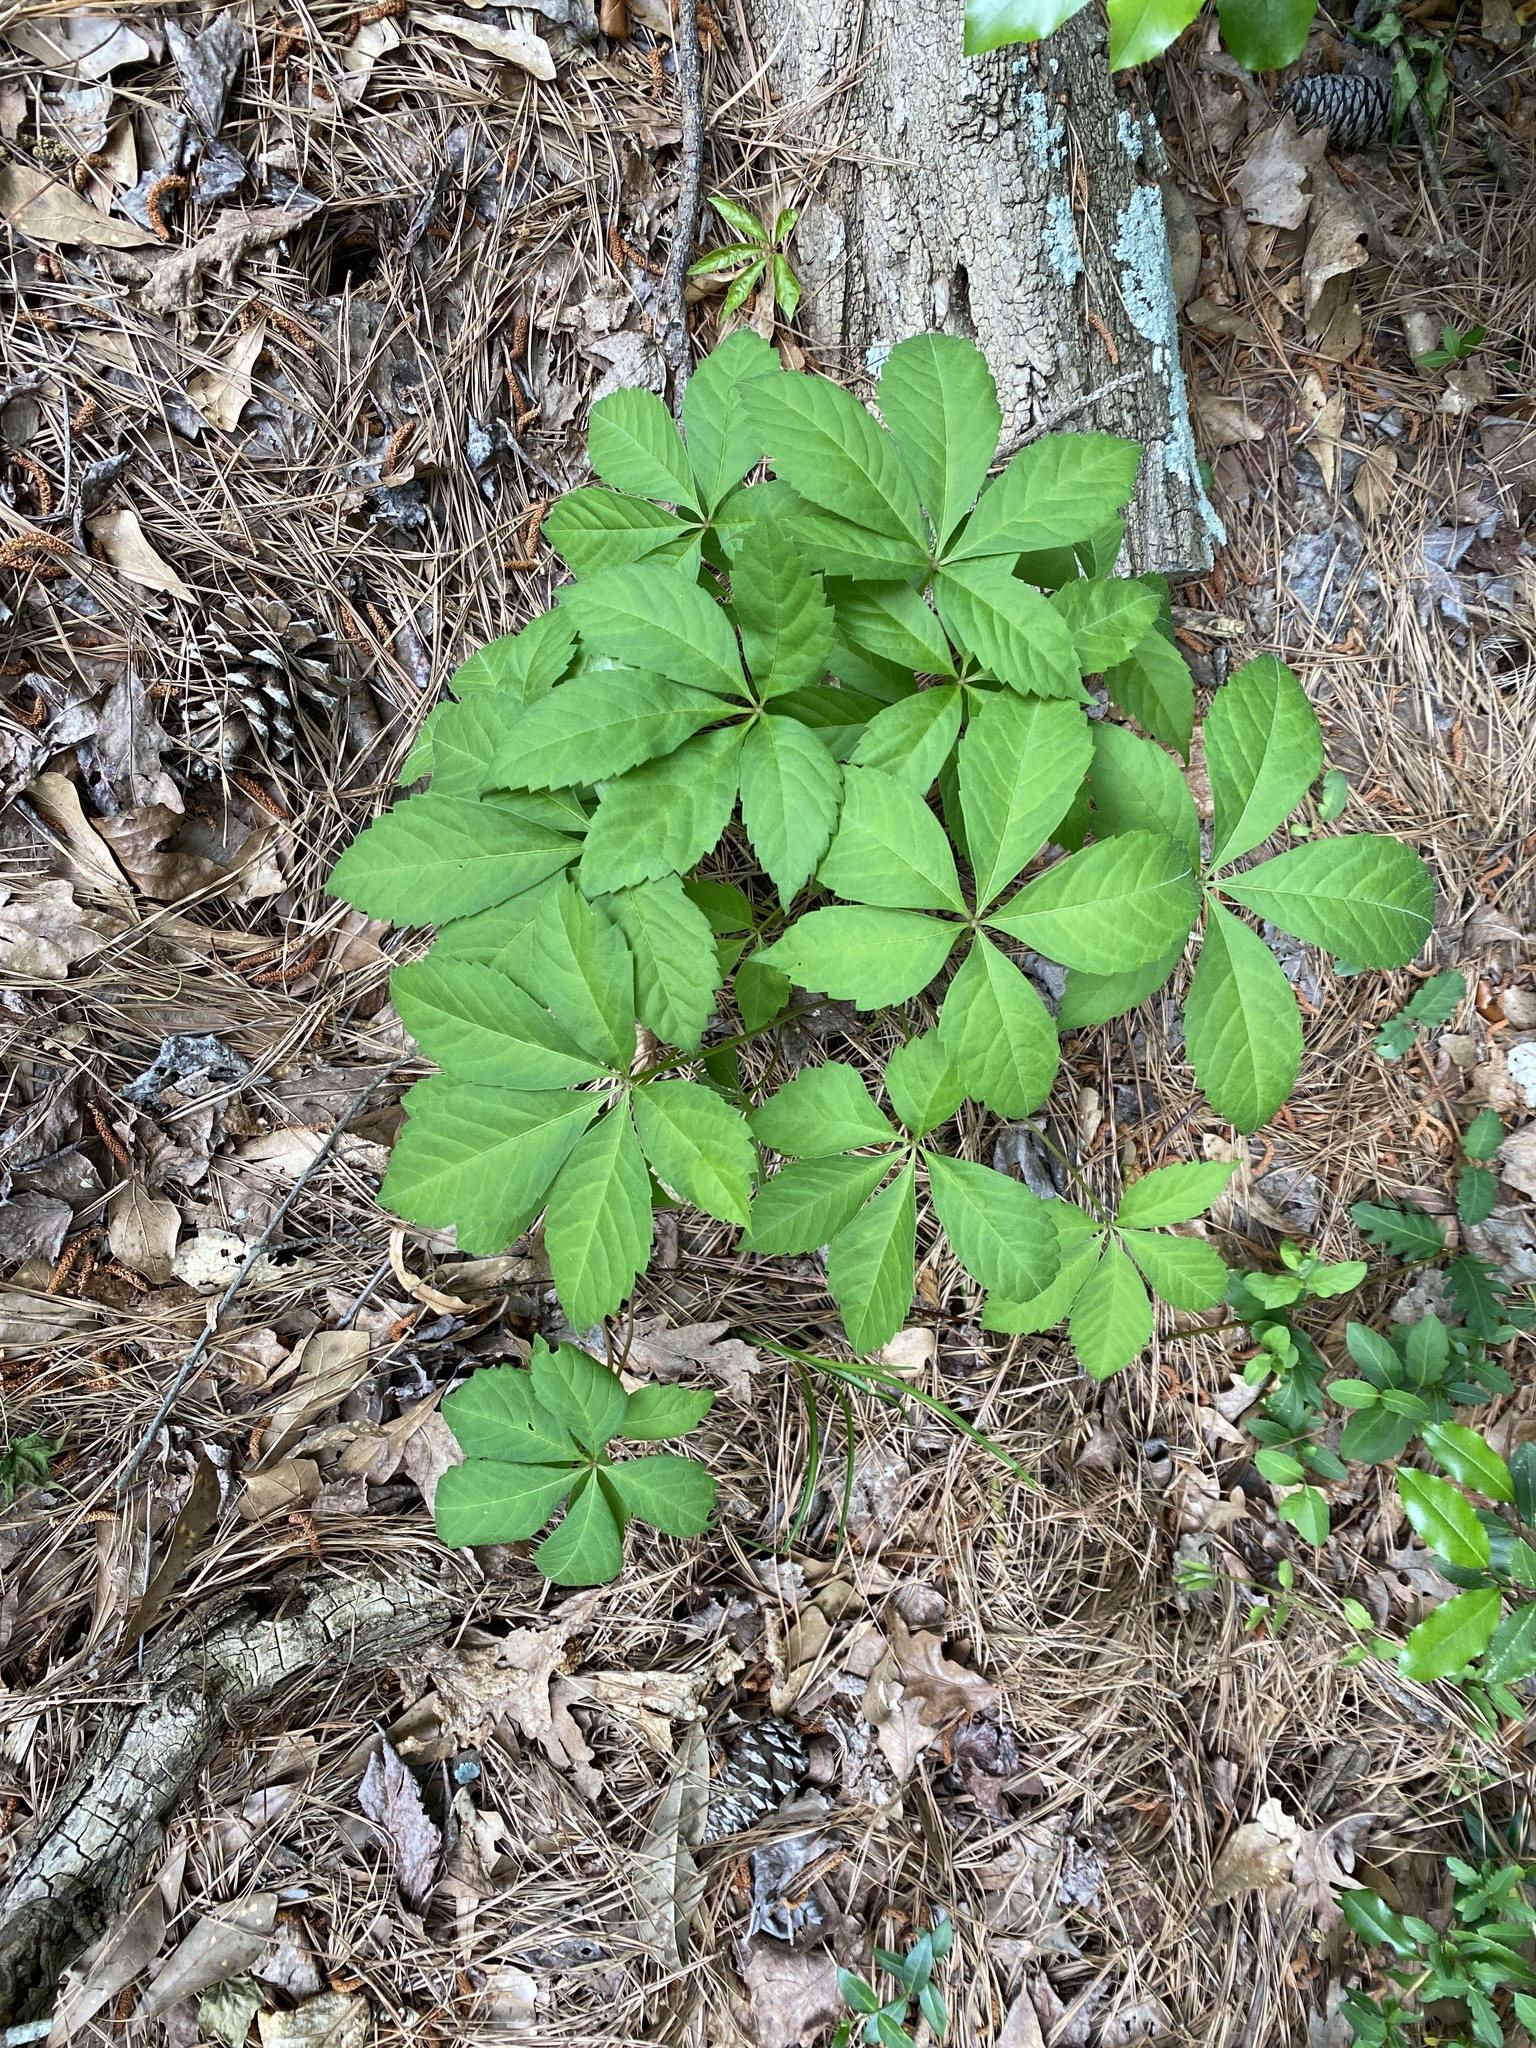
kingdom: Plantae
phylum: Tracheophyta
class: Magnoliopsida
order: Vitales
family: Vitaceae
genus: Parthenocissus
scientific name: Parthenocissus quinquefolia
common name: Virginia-creeper
